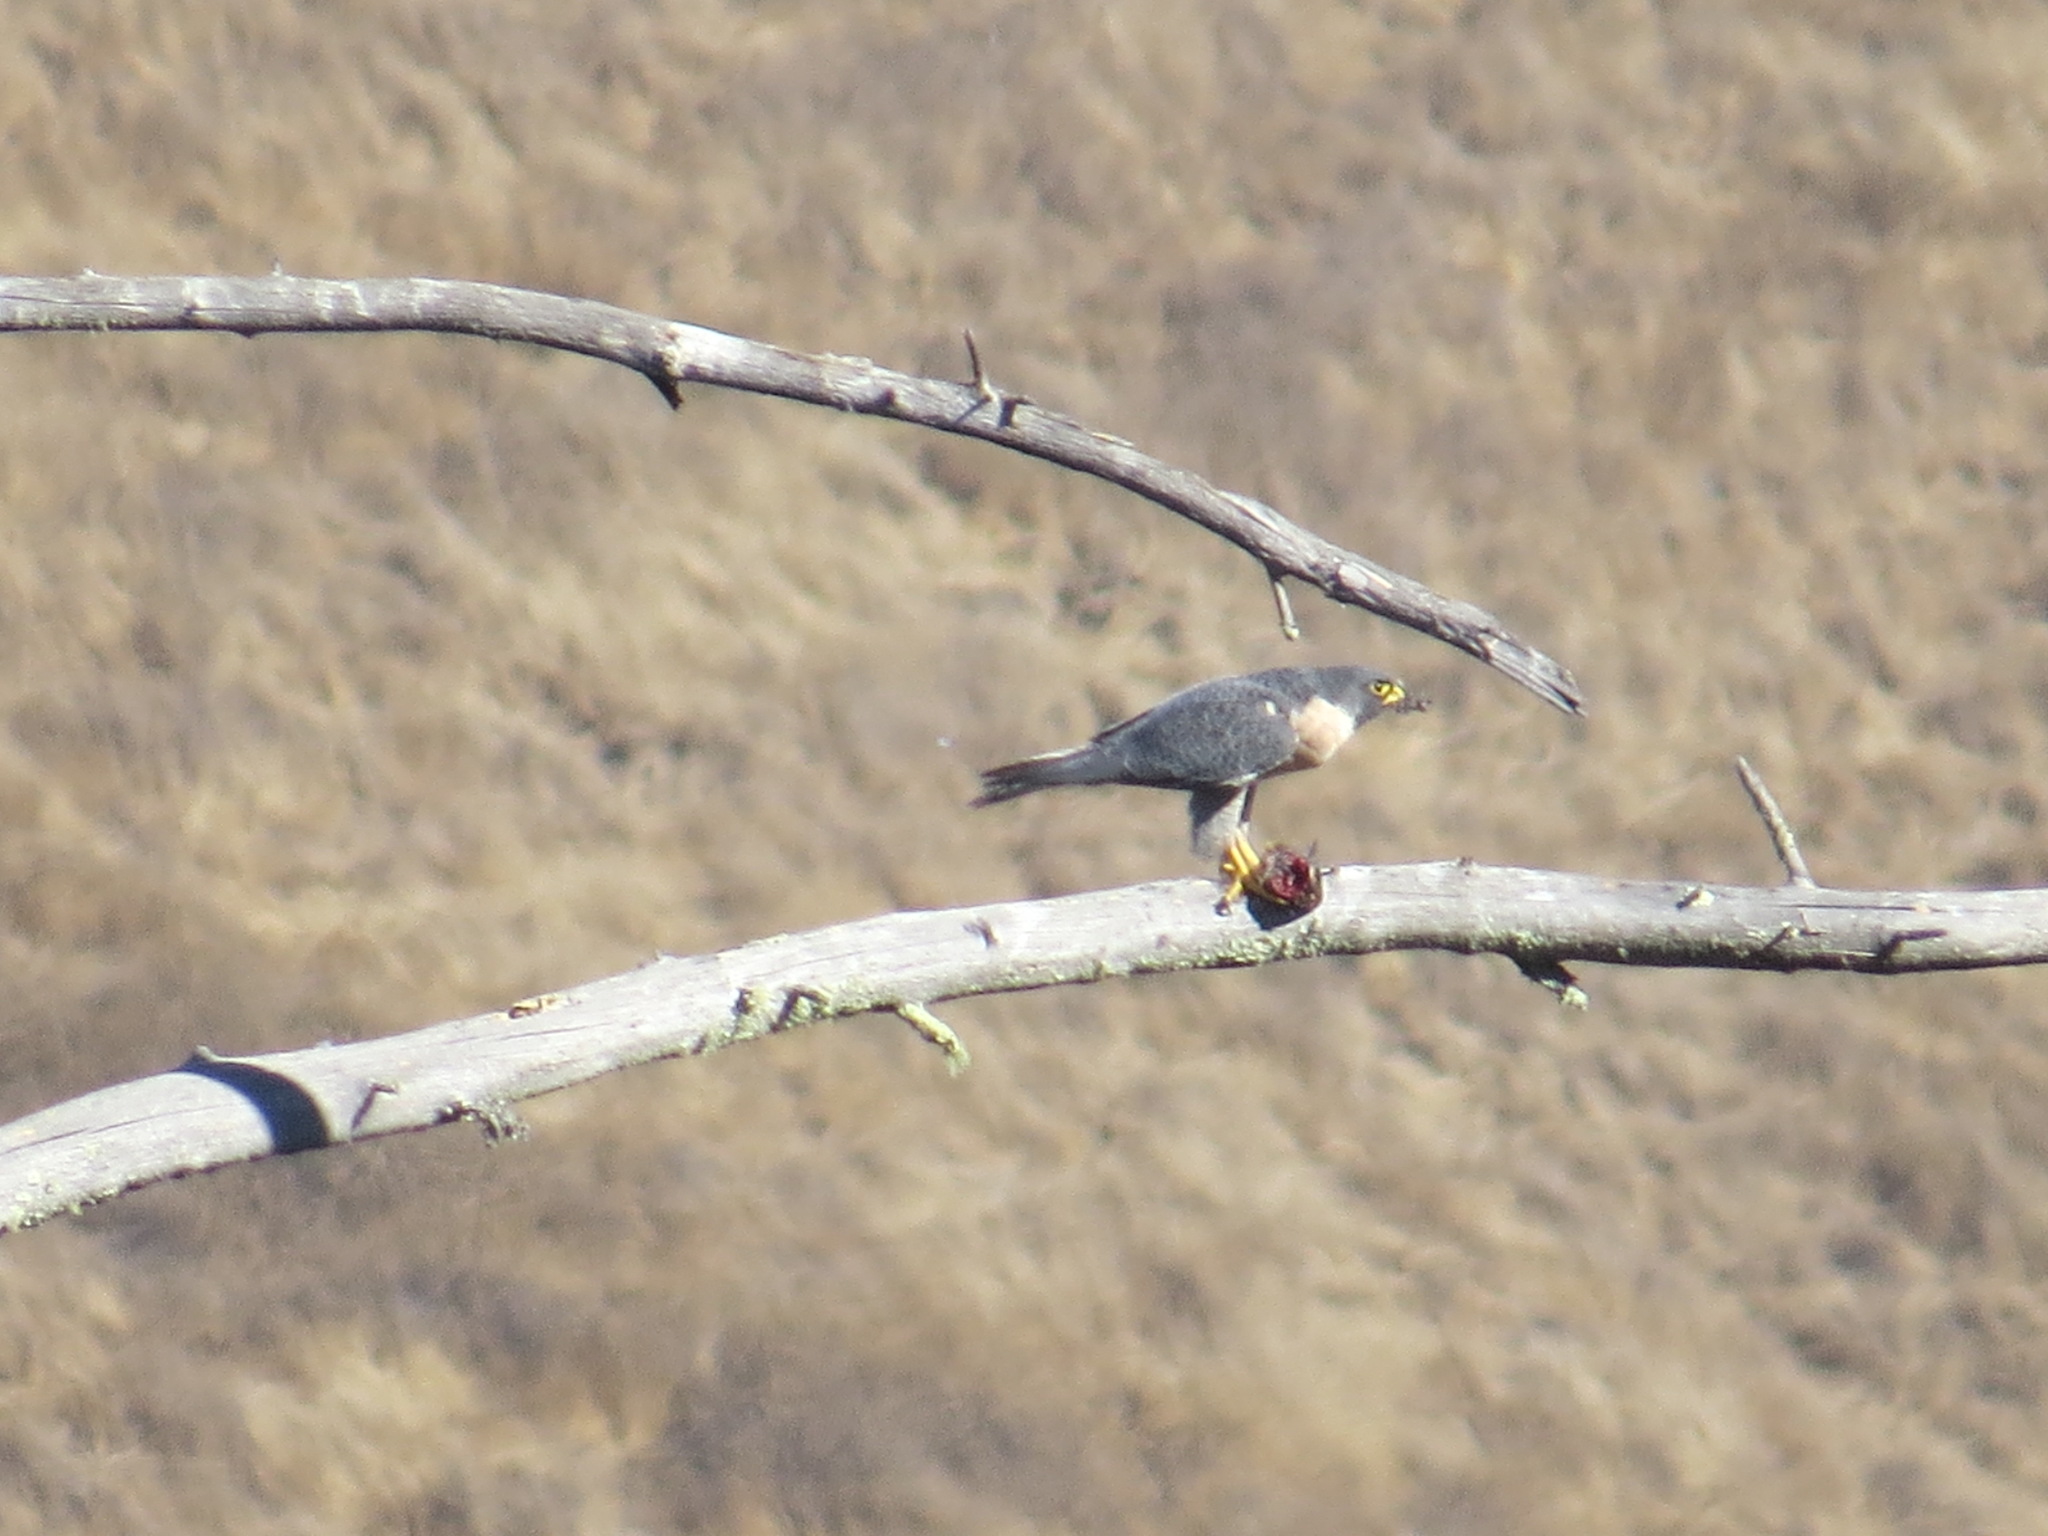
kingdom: Animalia
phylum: Chordata
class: Aves
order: Falconiformes
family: Falconidae
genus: Falco
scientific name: Falco peregrinus
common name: Peregrine falcon
